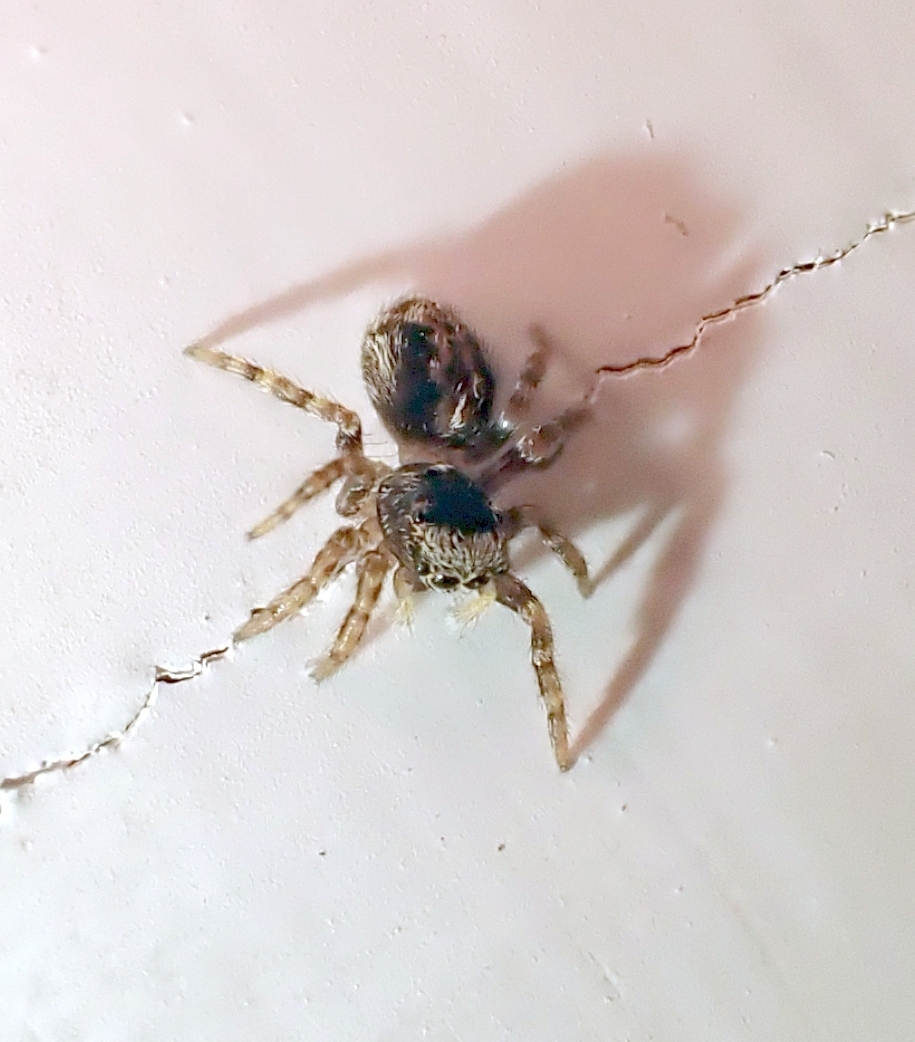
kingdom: Animalia
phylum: Arthropoda
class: Arachnida
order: Araneae
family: Salticidae
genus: Pseudeuophrys
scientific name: Pseudeuophrys lanigera
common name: Jumping spider
